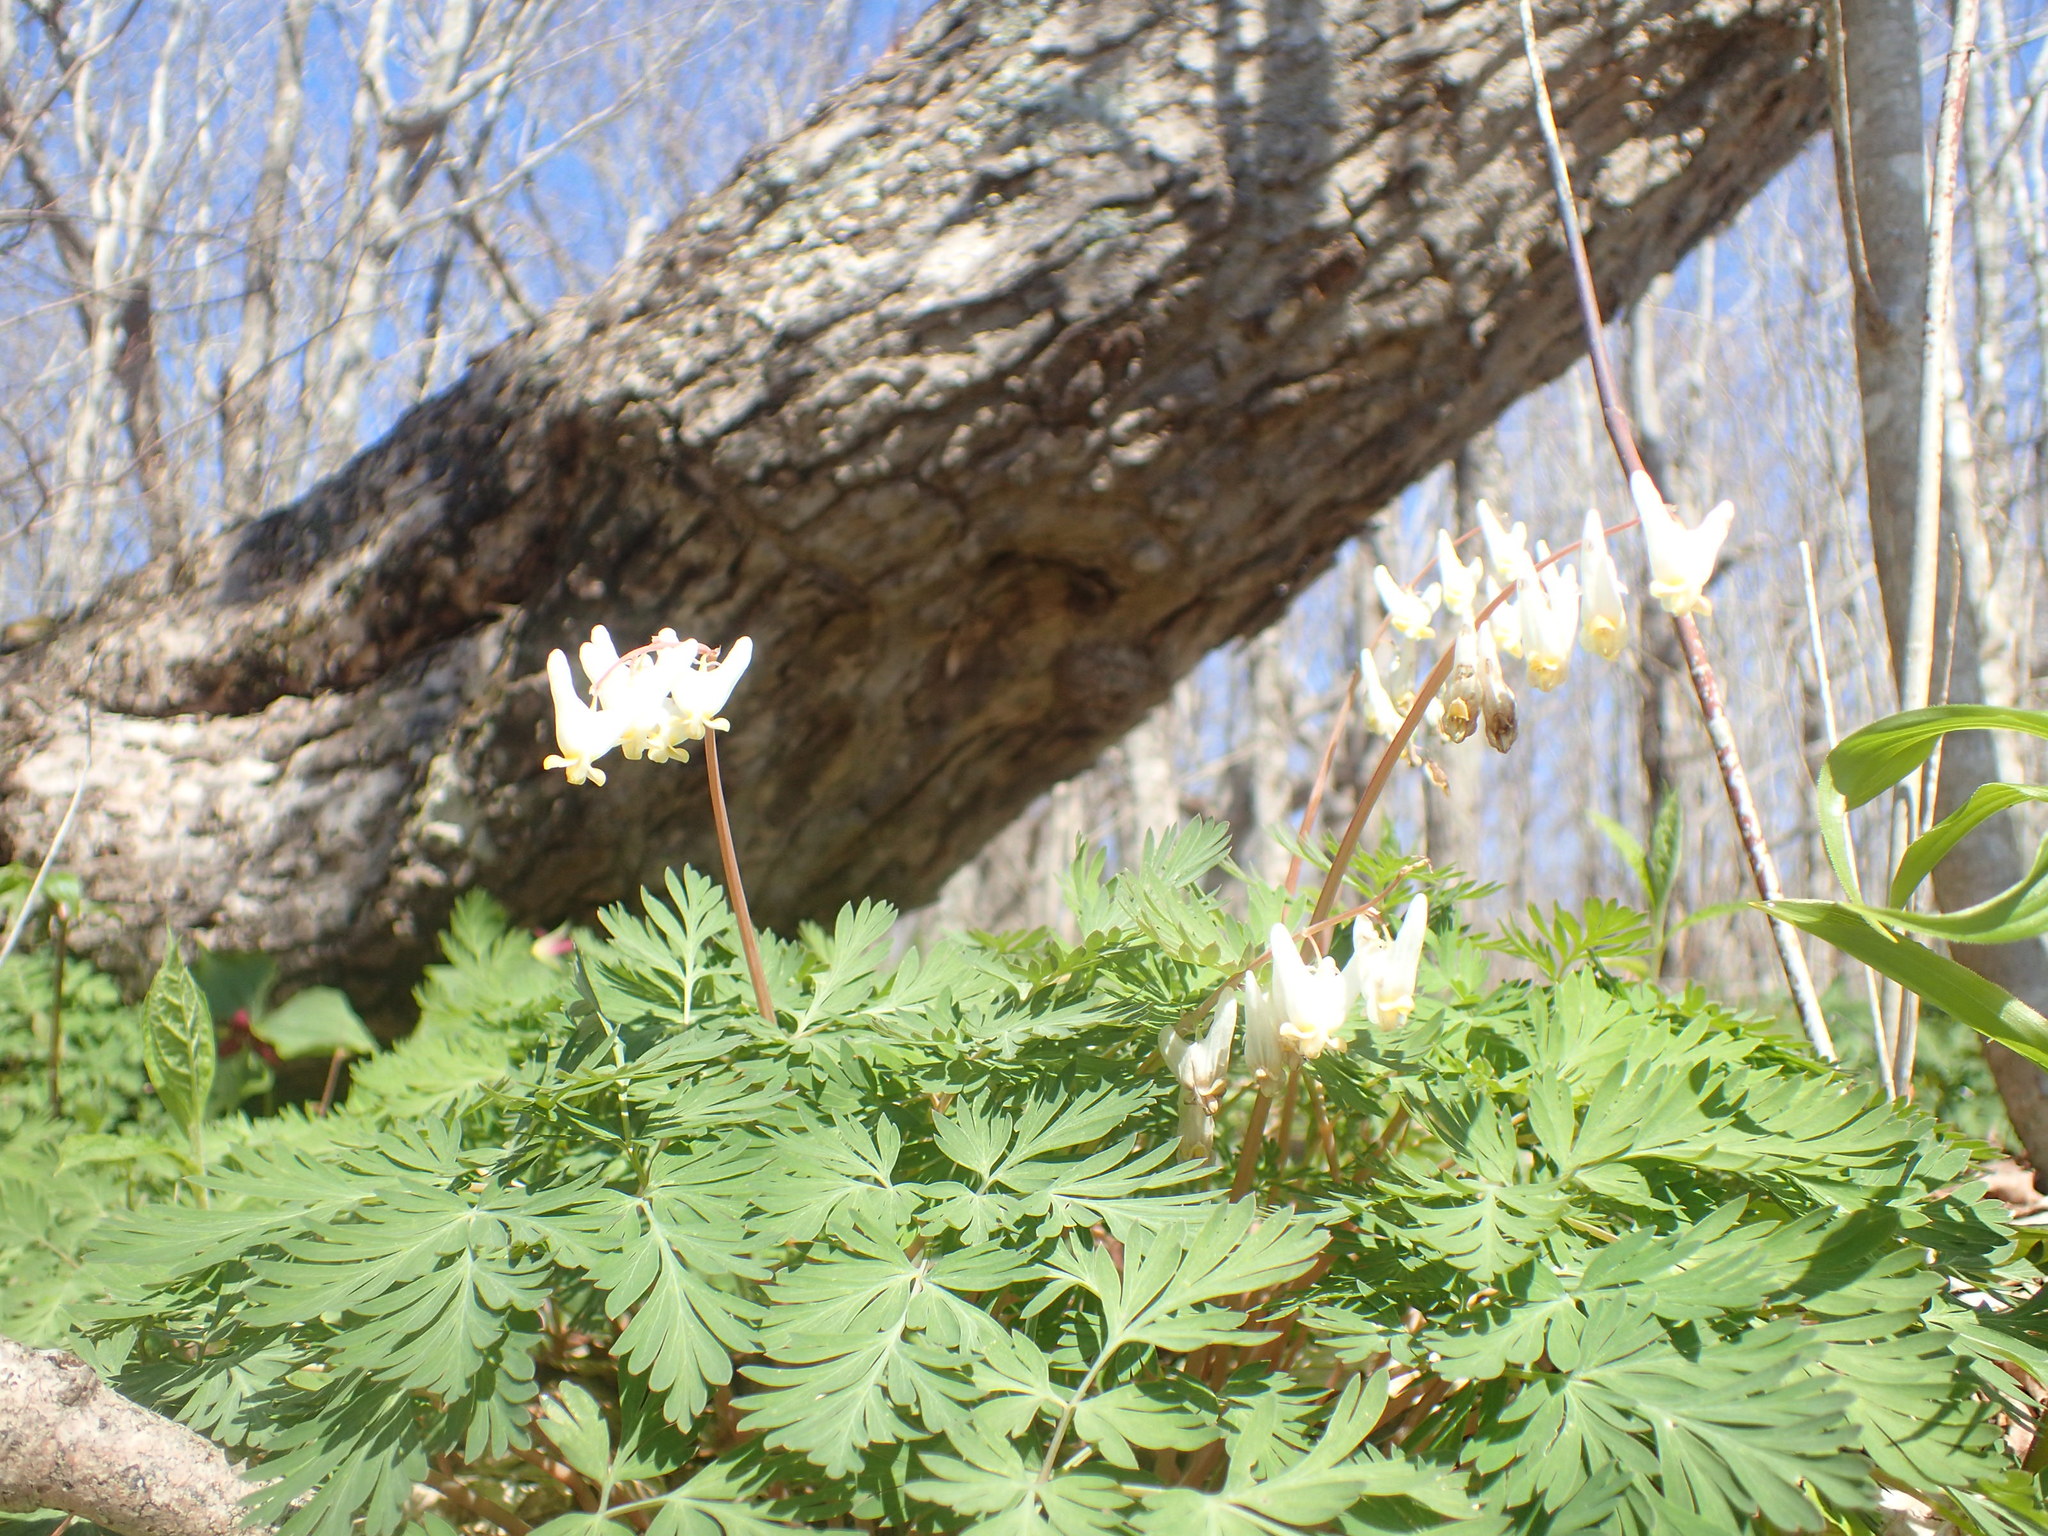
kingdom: Plantae
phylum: Tracheophyta
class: Magnoliopsida
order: Ranunculales
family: Papaveraceae
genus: Dicentra
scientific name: Dicentra cucullaria
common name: Dutchman's breeches
